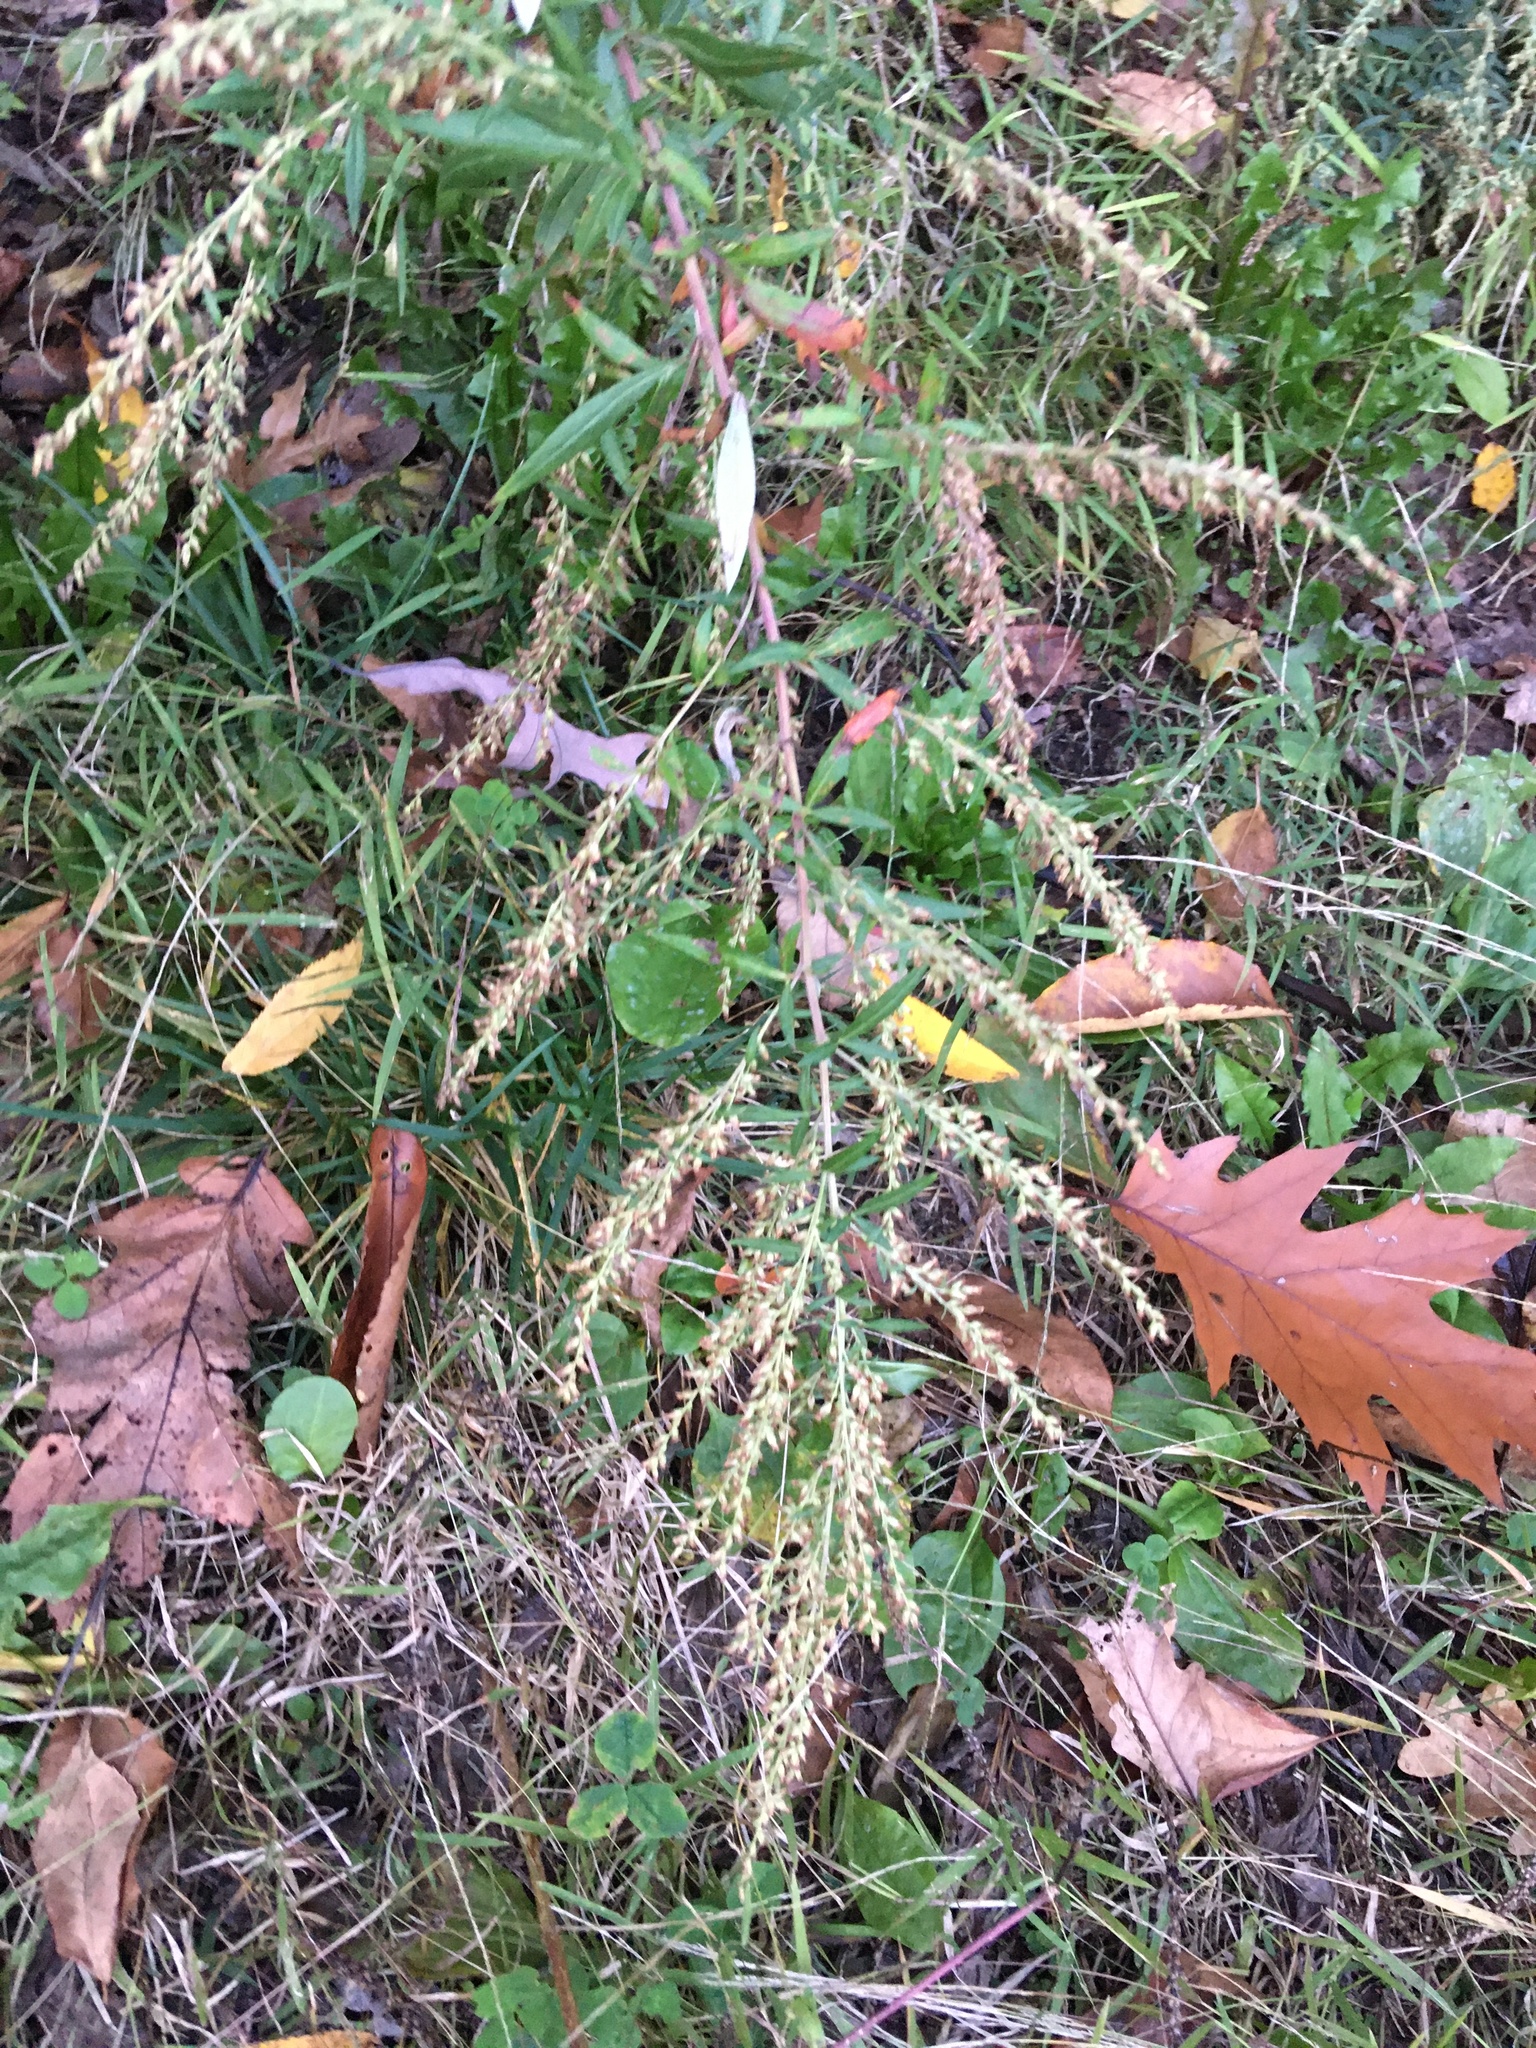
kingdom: Plantae
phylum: Tracheophyta
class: Magnoliopsida
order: Asterales
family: Asteraceae
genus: Artemisia
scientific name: Artemisia vulgaris
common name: Mugwort
